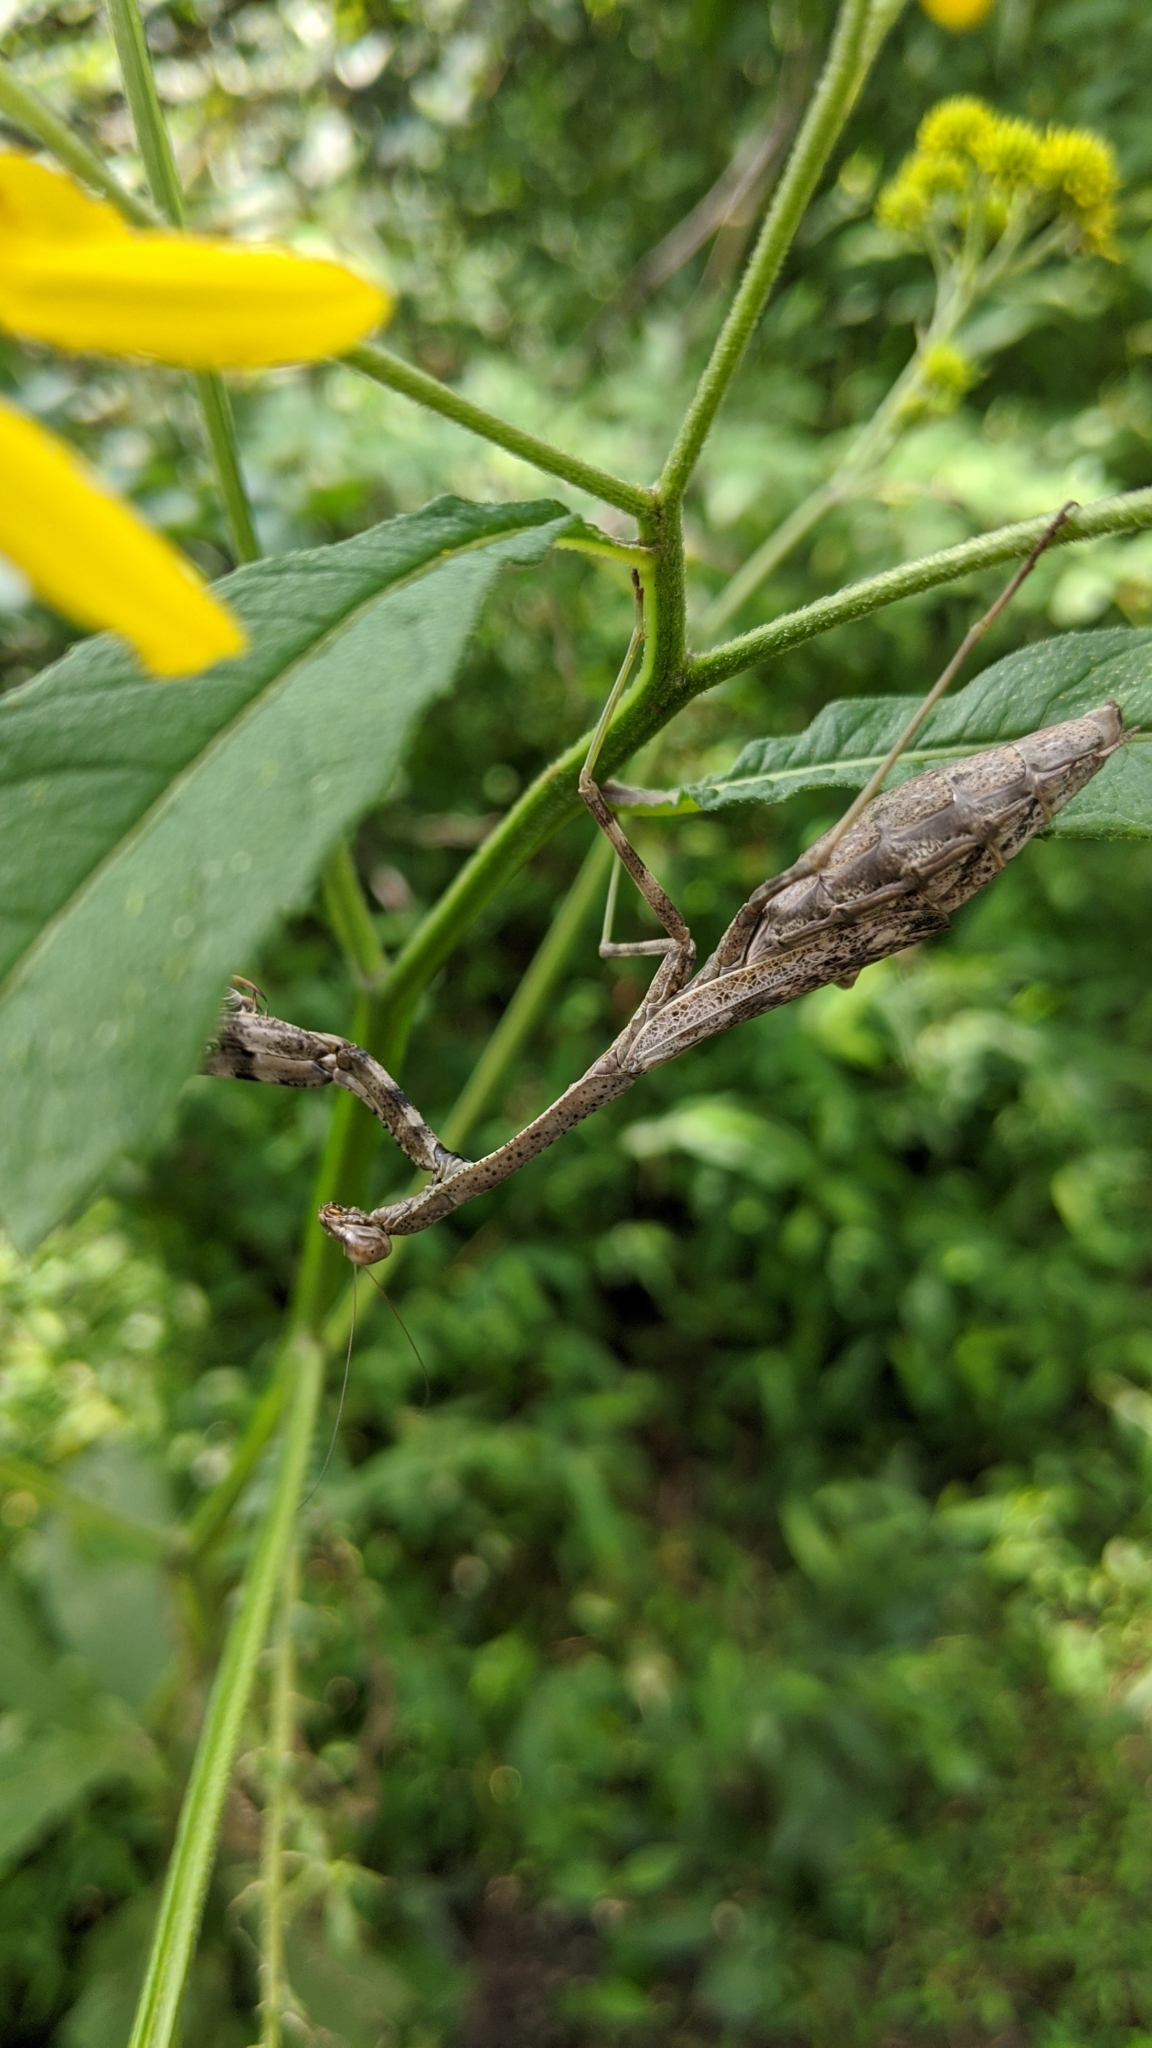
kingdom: Animalia
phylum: Arthropoda
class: Insecta
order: Mantodea
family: Mantidae
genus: Stagmomantis
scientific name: Stagmomantis carolina
